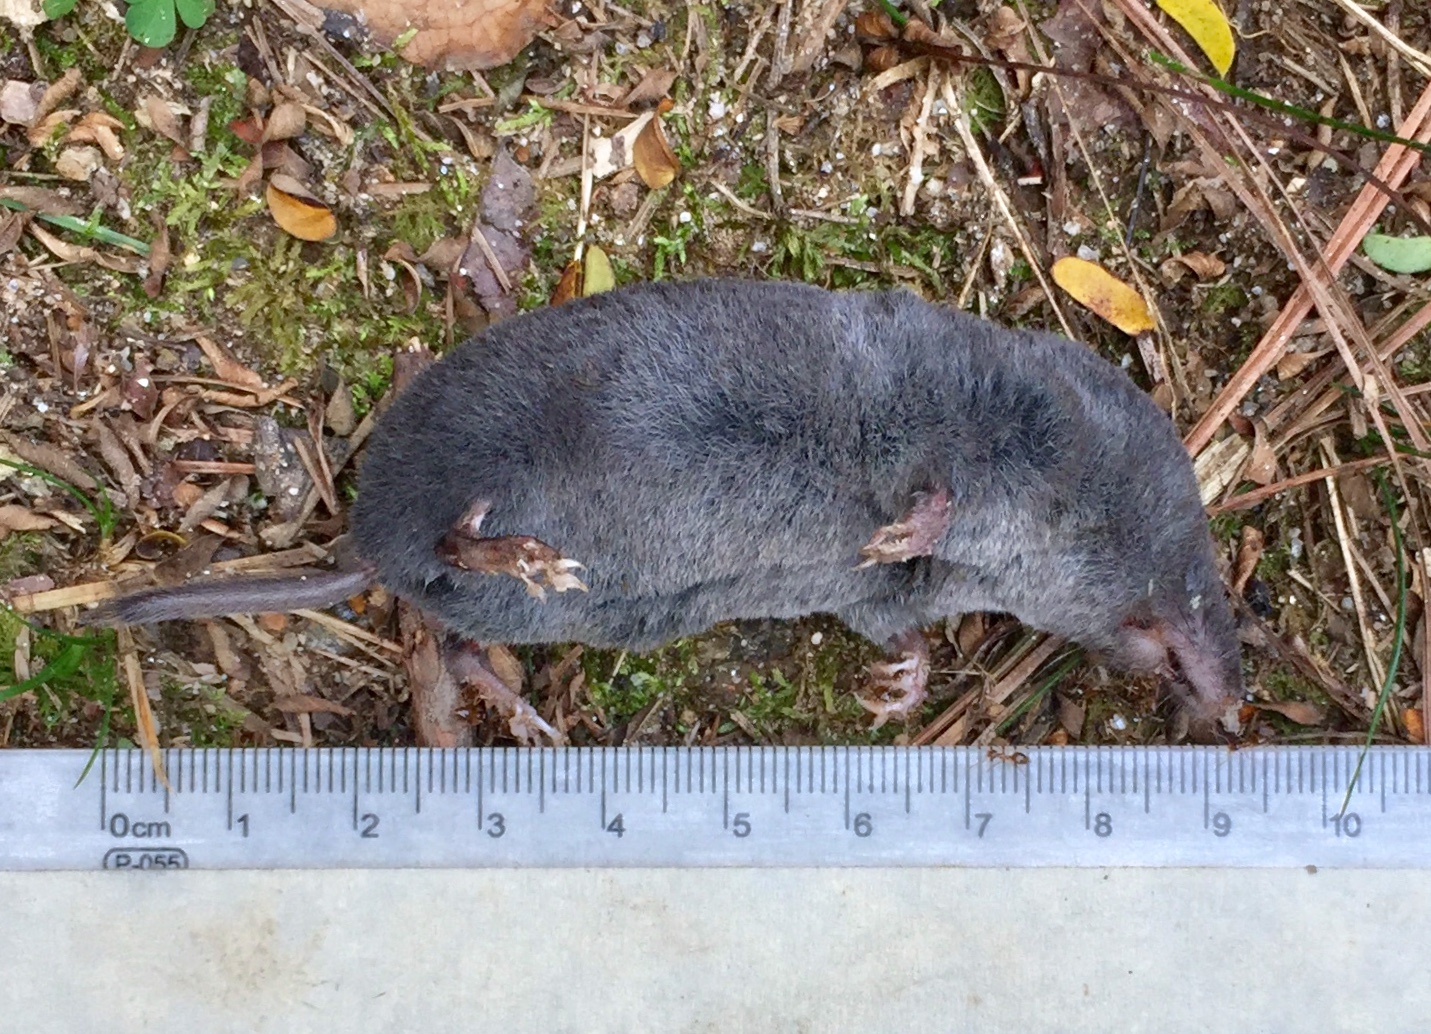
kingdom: Animalia
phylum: Chordata
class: Mammalia
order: Soricomorpha
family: Soricidae
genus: Blarina
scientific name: Blarina brevicauda
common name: Northern short-tailed shrew
